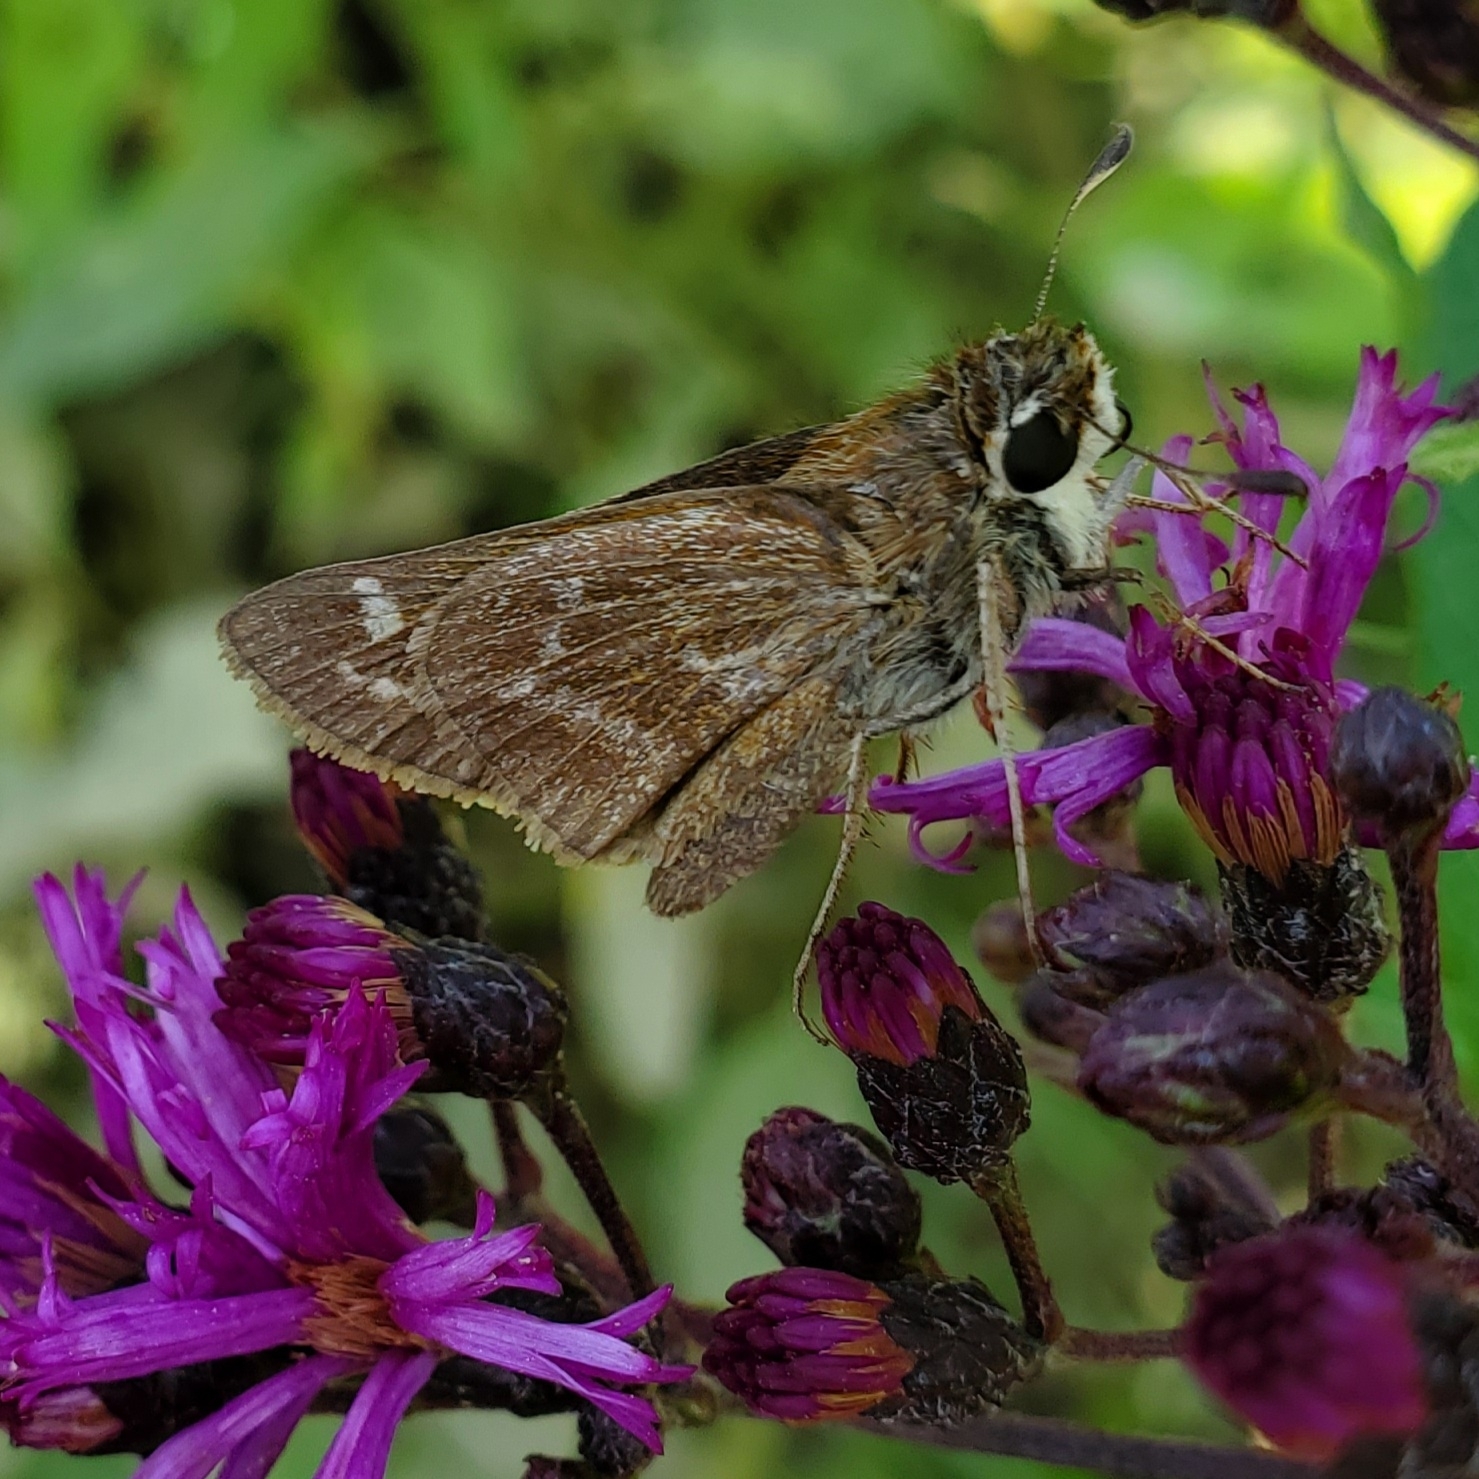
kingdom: Animalia
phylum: Arthropoda
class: Insecta
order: Lepidoptera
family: Hesperiidae
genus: Atalopedes
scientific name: Atalopedes
